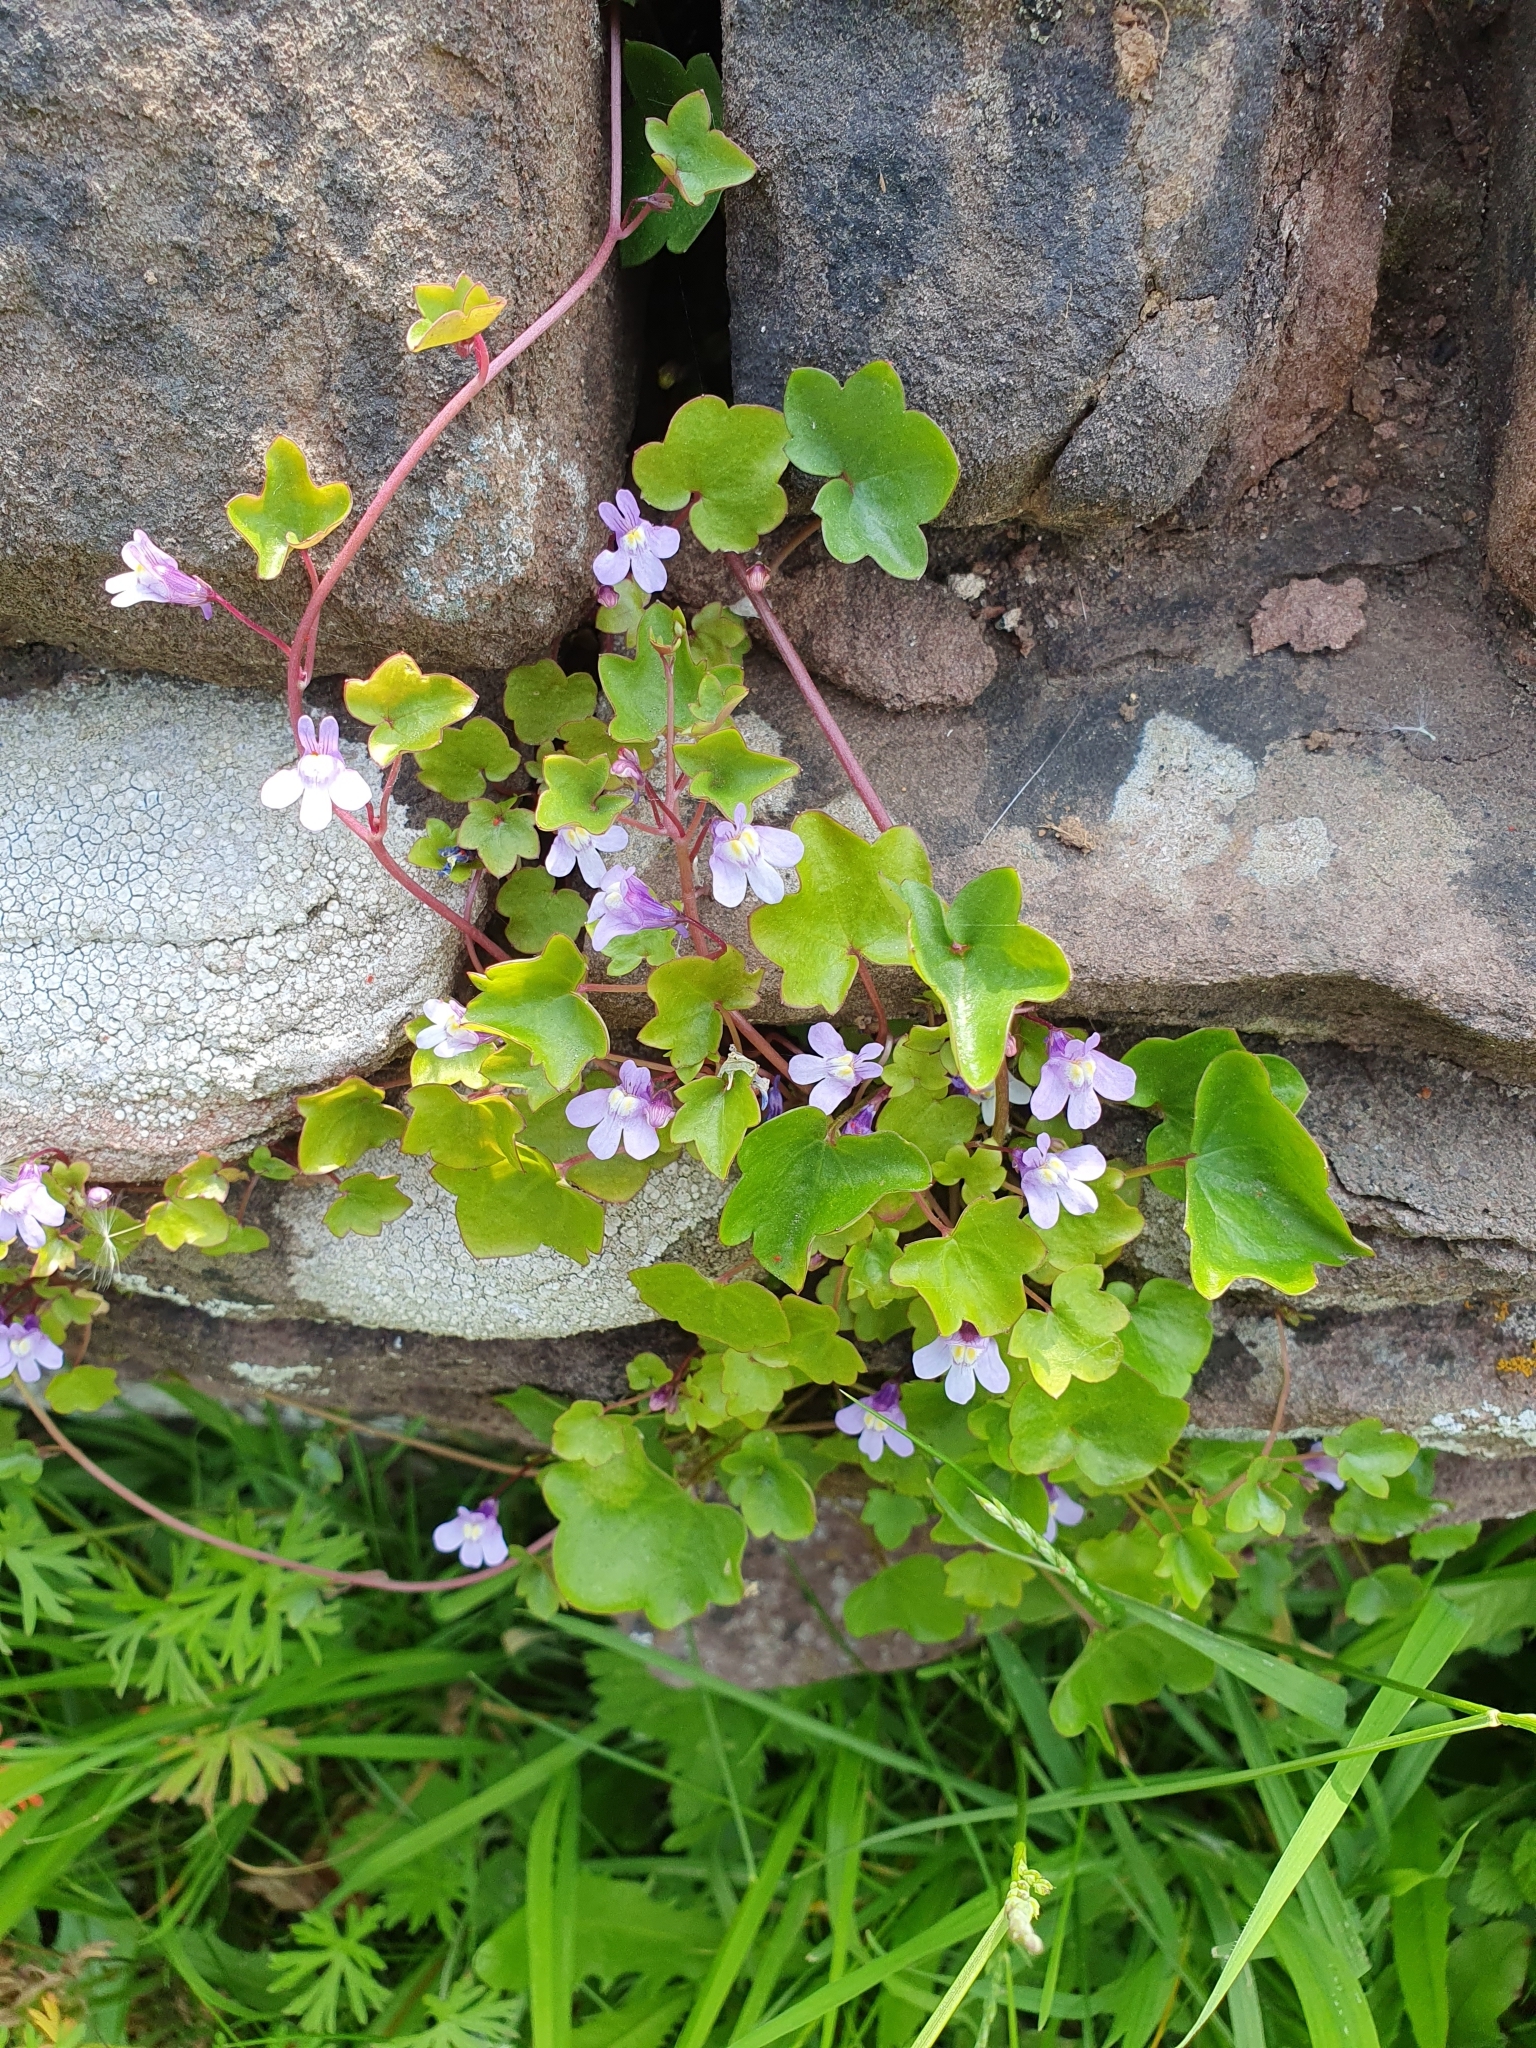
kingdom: Plantae
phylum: Tracheophyta
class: Magnoliopsida
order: Lamiales
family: Plantaginaceae
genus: Cymbalaria
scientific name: Cymbalaria muralis
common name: Ivy-leaved toadflax
